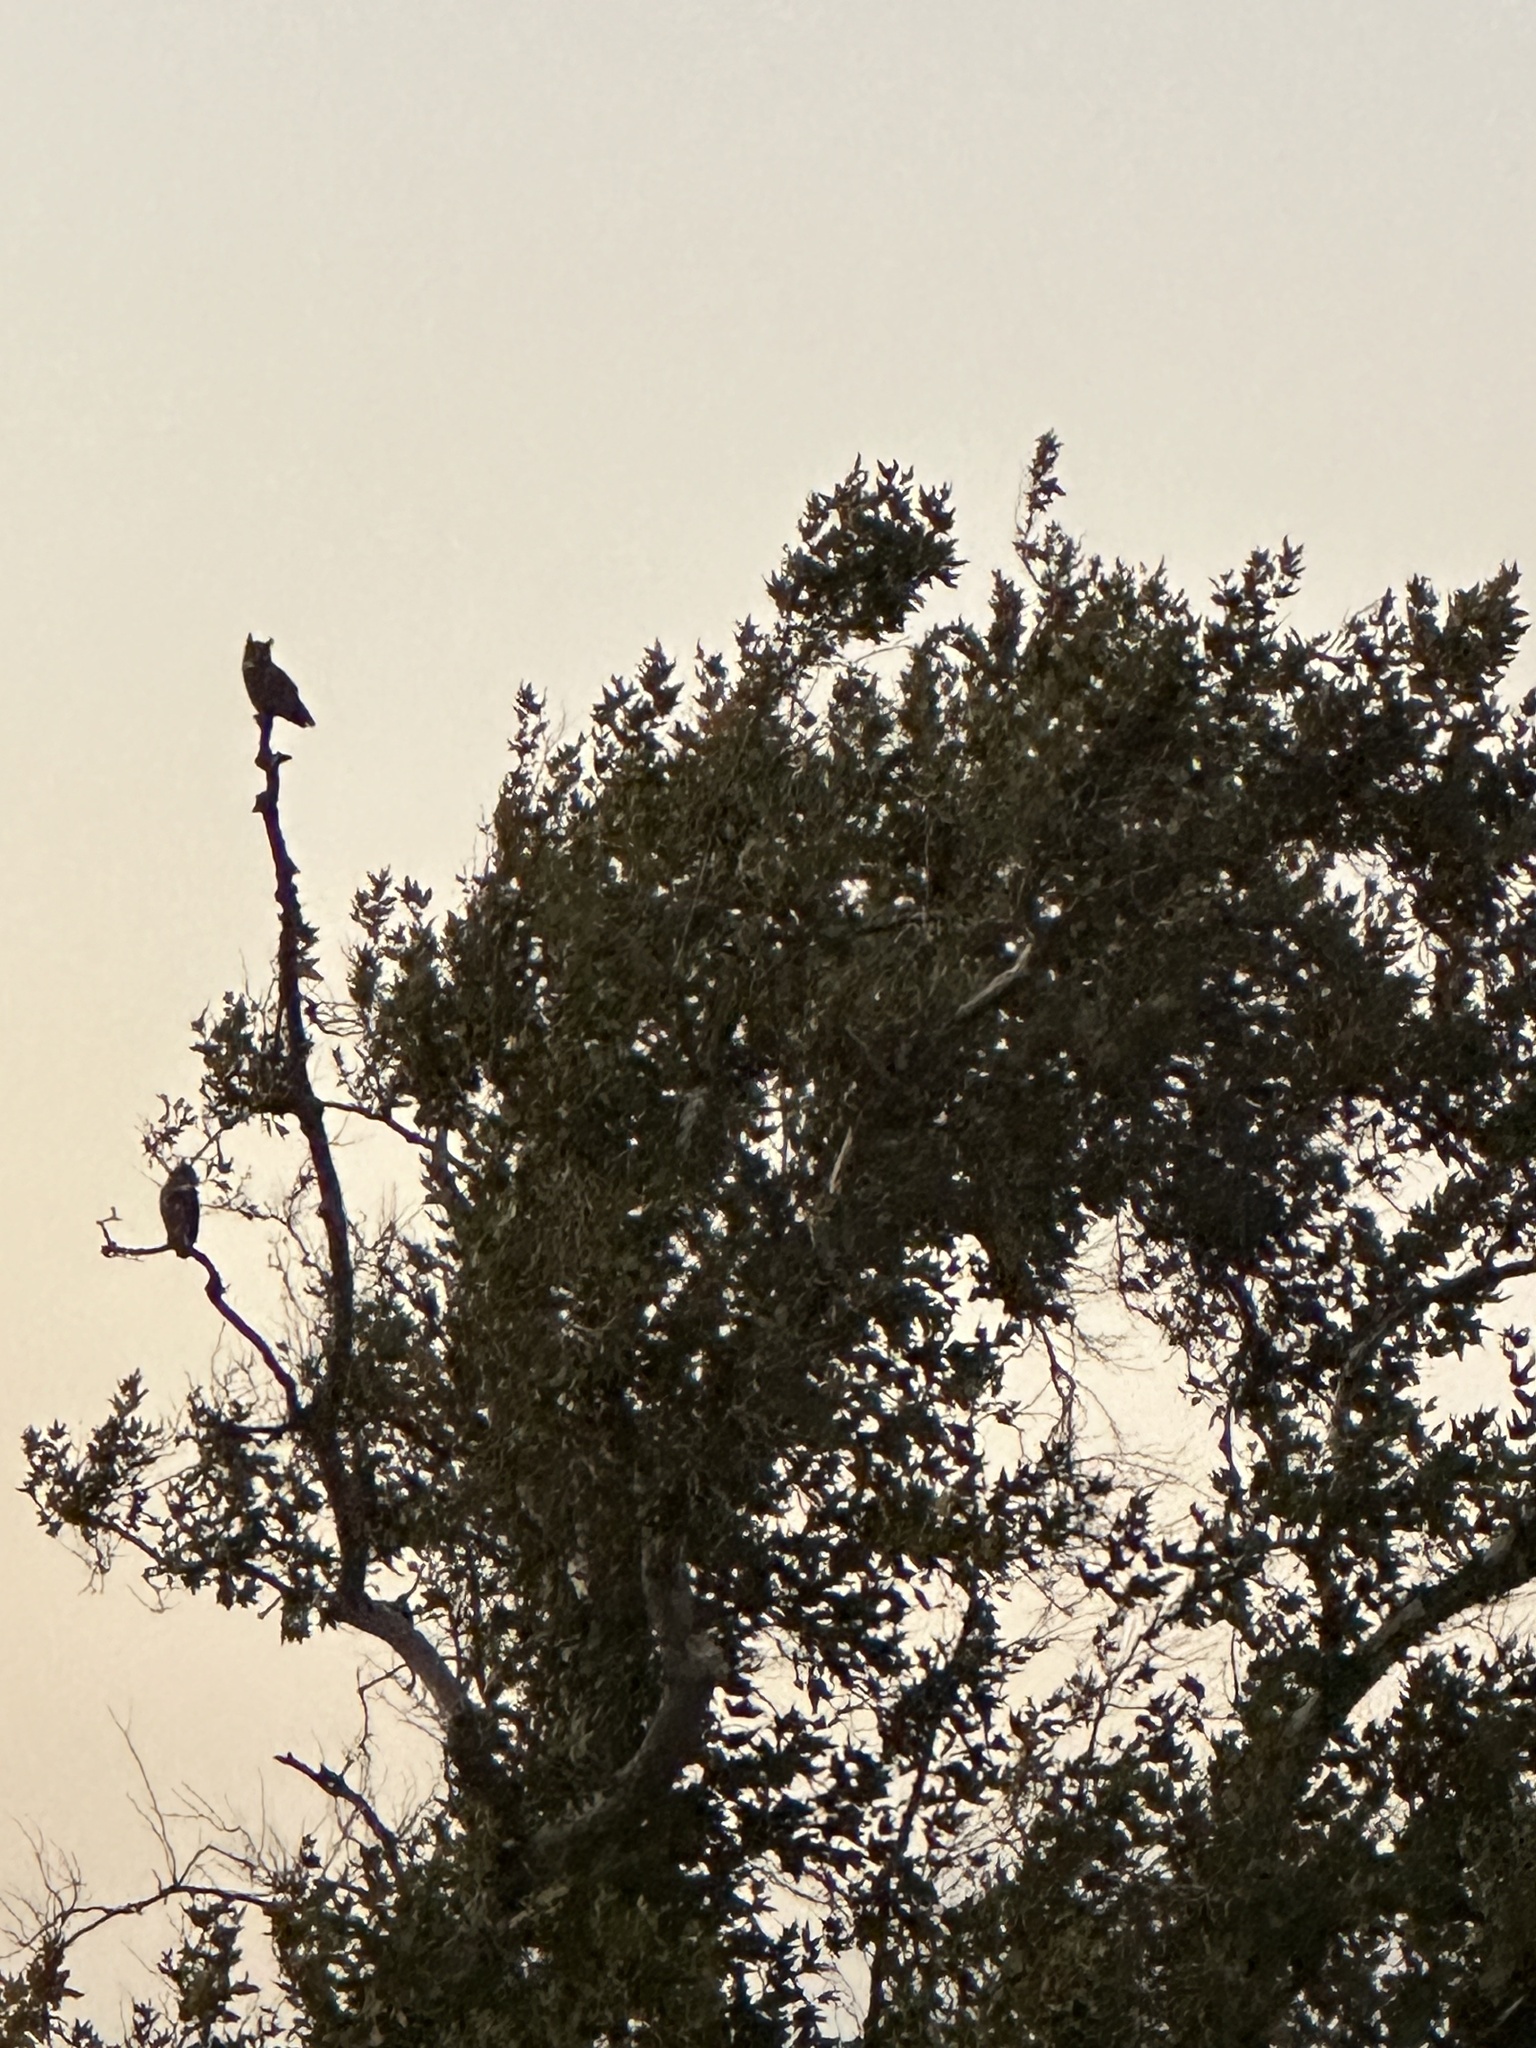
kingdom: Animalia
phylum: Chordata
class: Aves
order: Strigiformes
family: Strigidae
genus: Bubo
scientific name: Bubo virginianus
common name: Great horned owl
